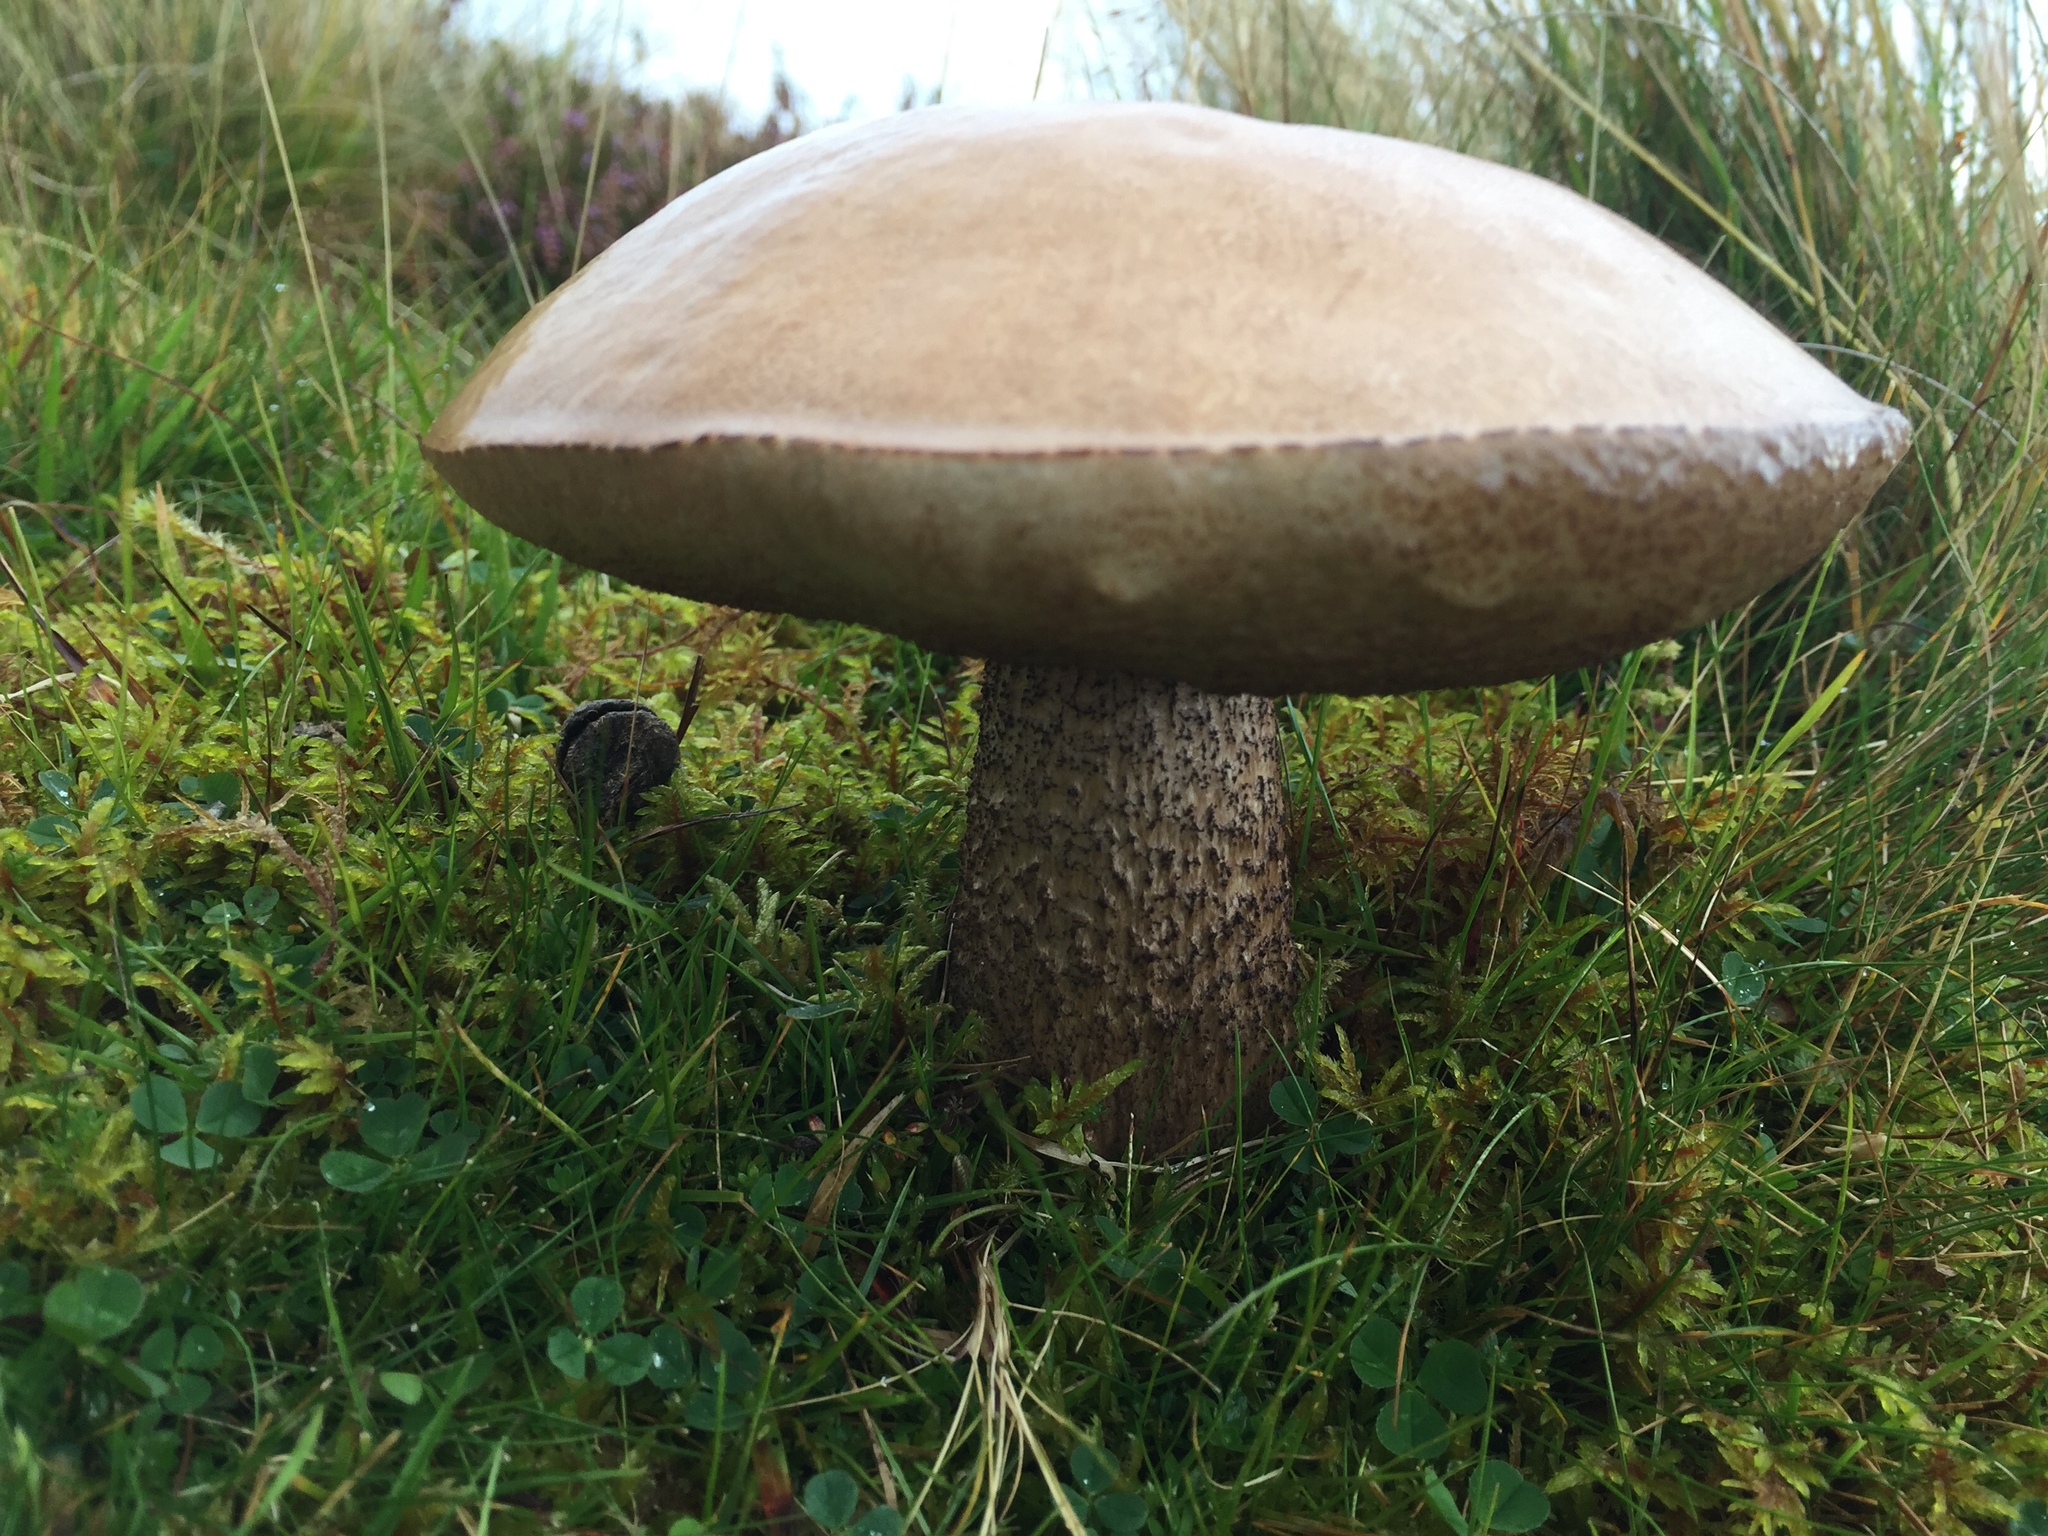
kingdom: Fungi
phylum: Basidiomycota
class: Agaricomycetes
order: Boletales
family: Boletaceae
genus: Leccinum
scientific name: Leccinum scabrum
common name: Blushing bolete
